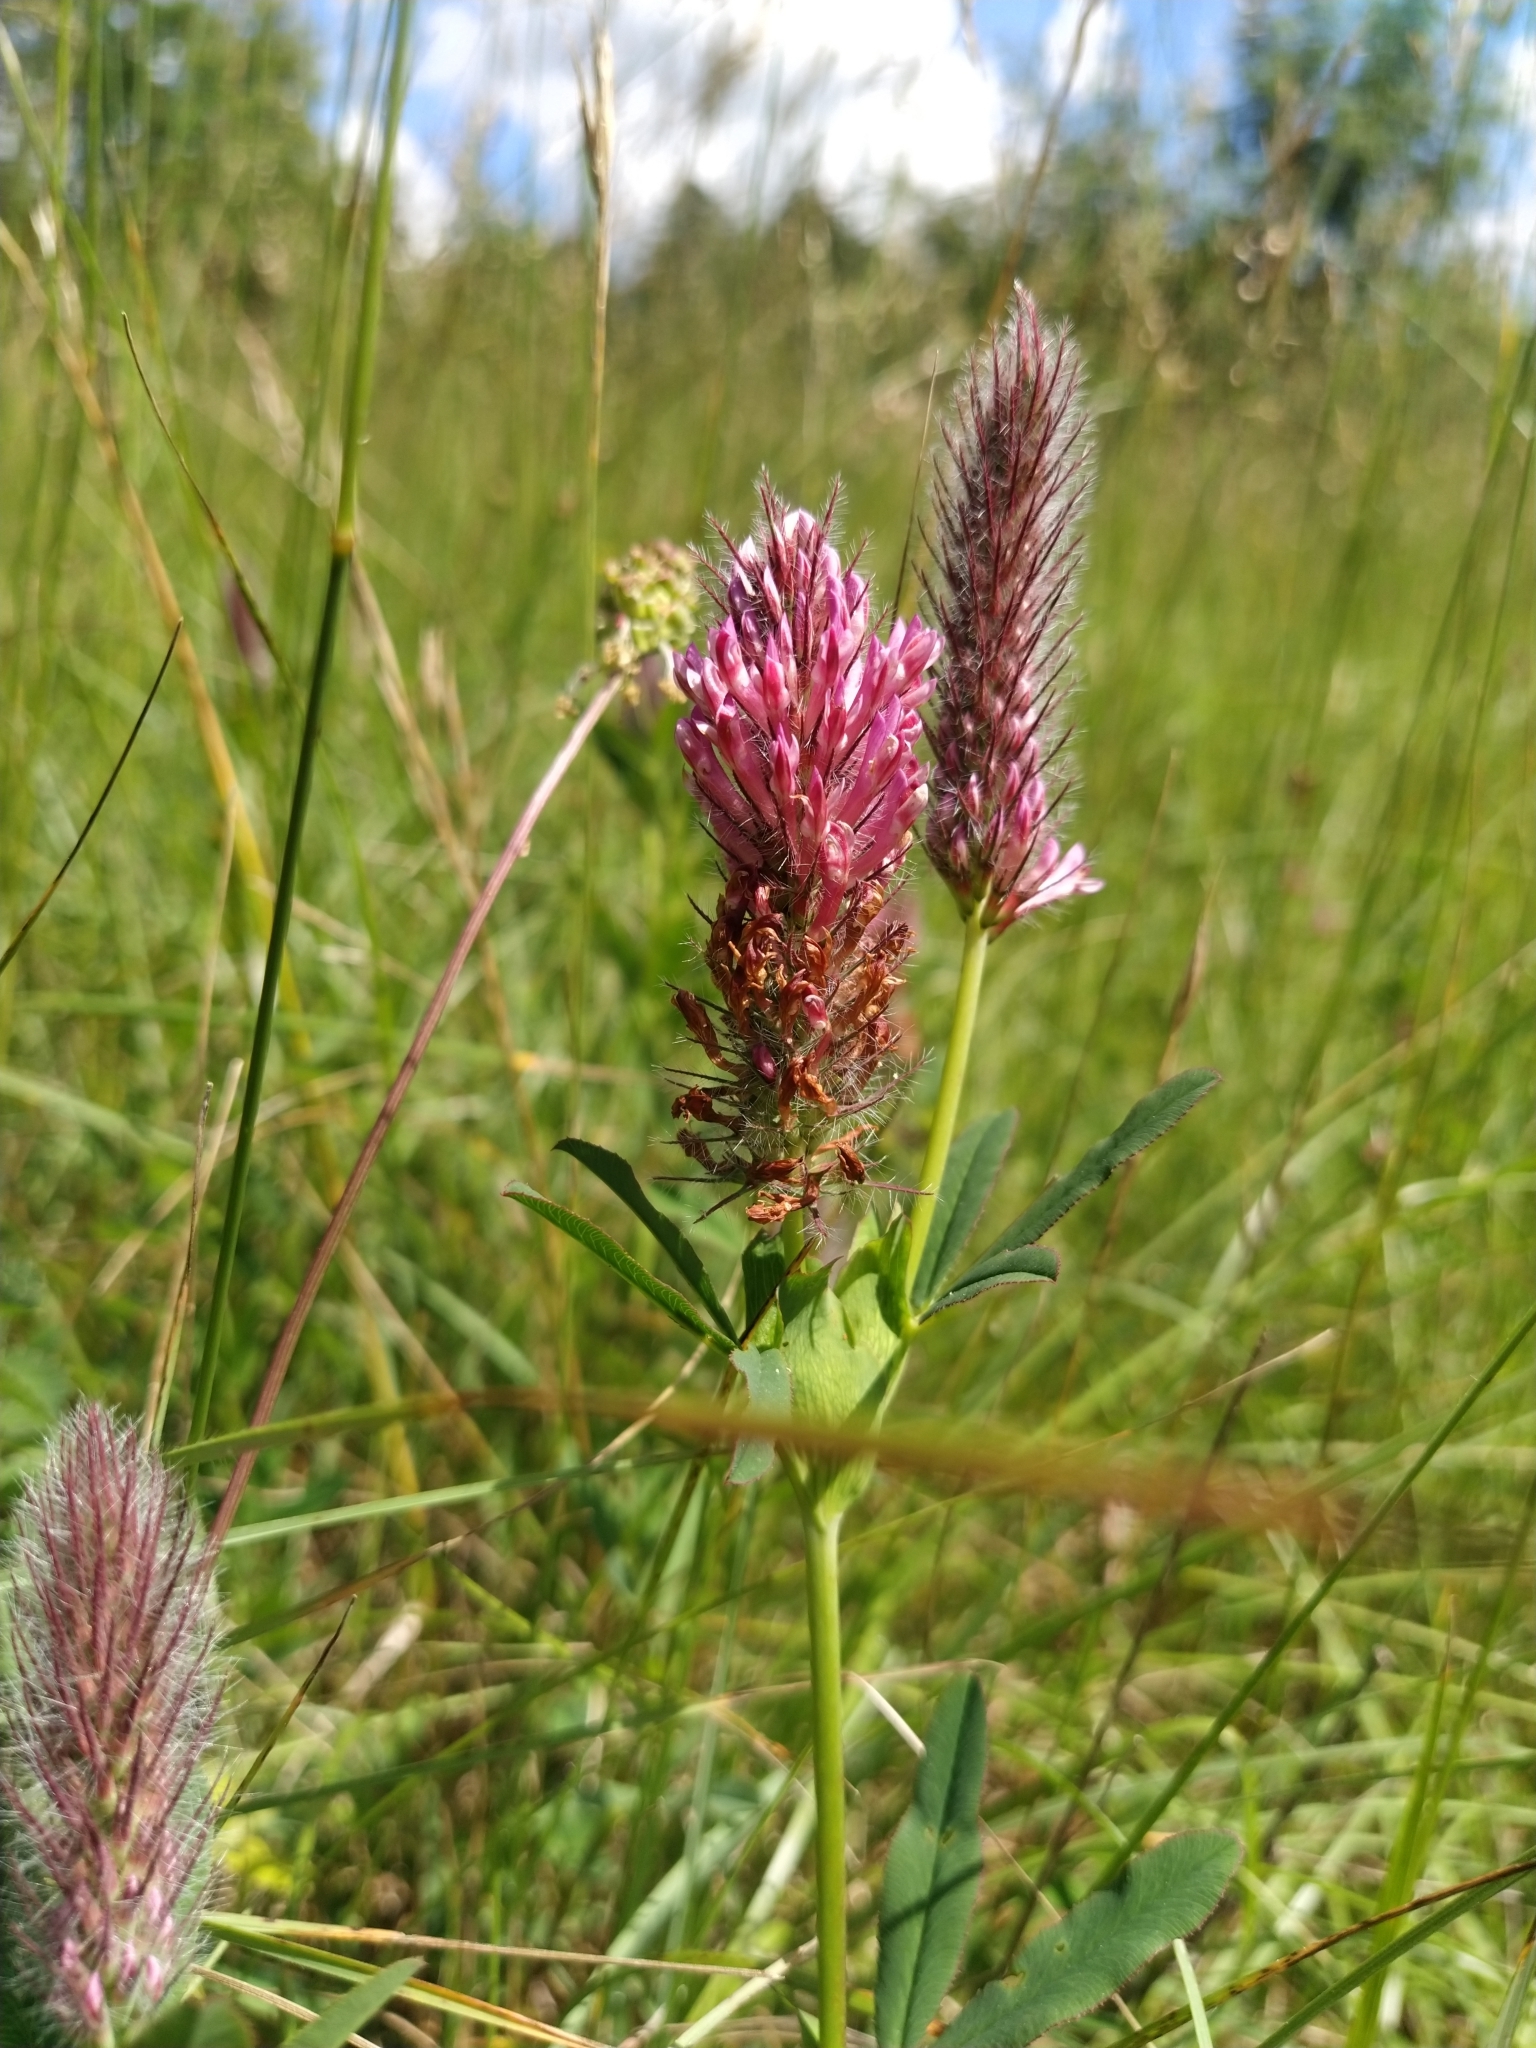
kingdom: Plantae
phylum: Tracheophyta
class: Magnoliopsida
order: Fabales
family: Fabaceae
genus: Trifolium
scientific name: Trifolium rubens
